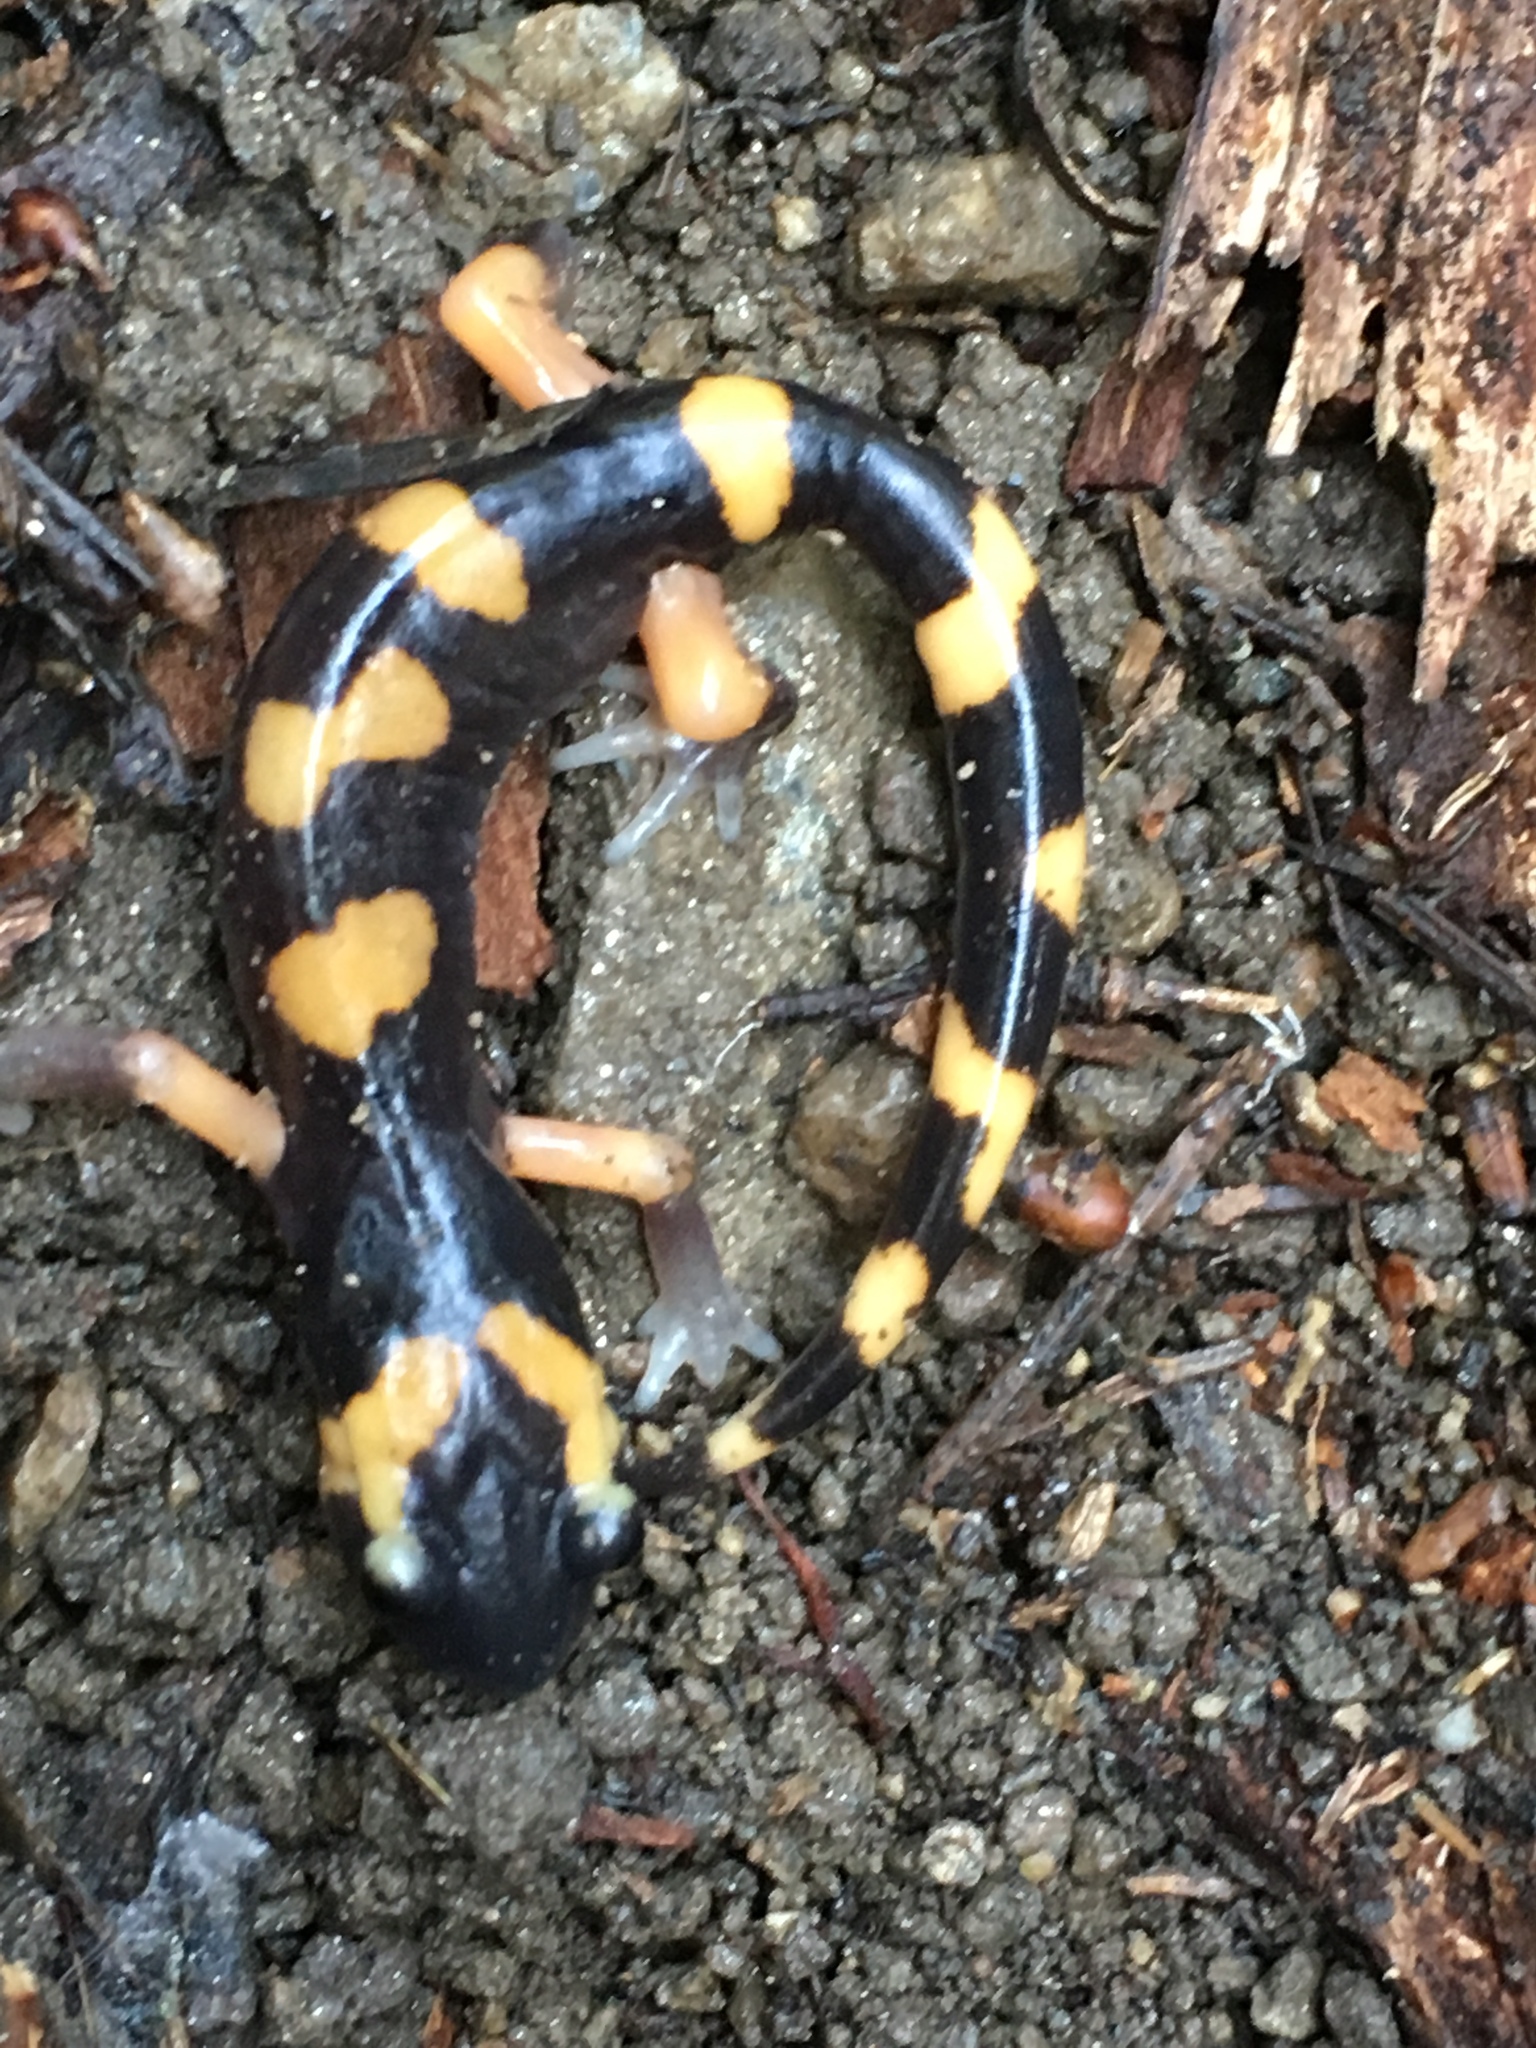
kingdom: Animalia
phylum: Chordata
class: Amphibia
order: Caudata
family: Plethodontidae
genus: Ensatina
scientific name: Ensatina eschscholtzii
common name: Ensatina
